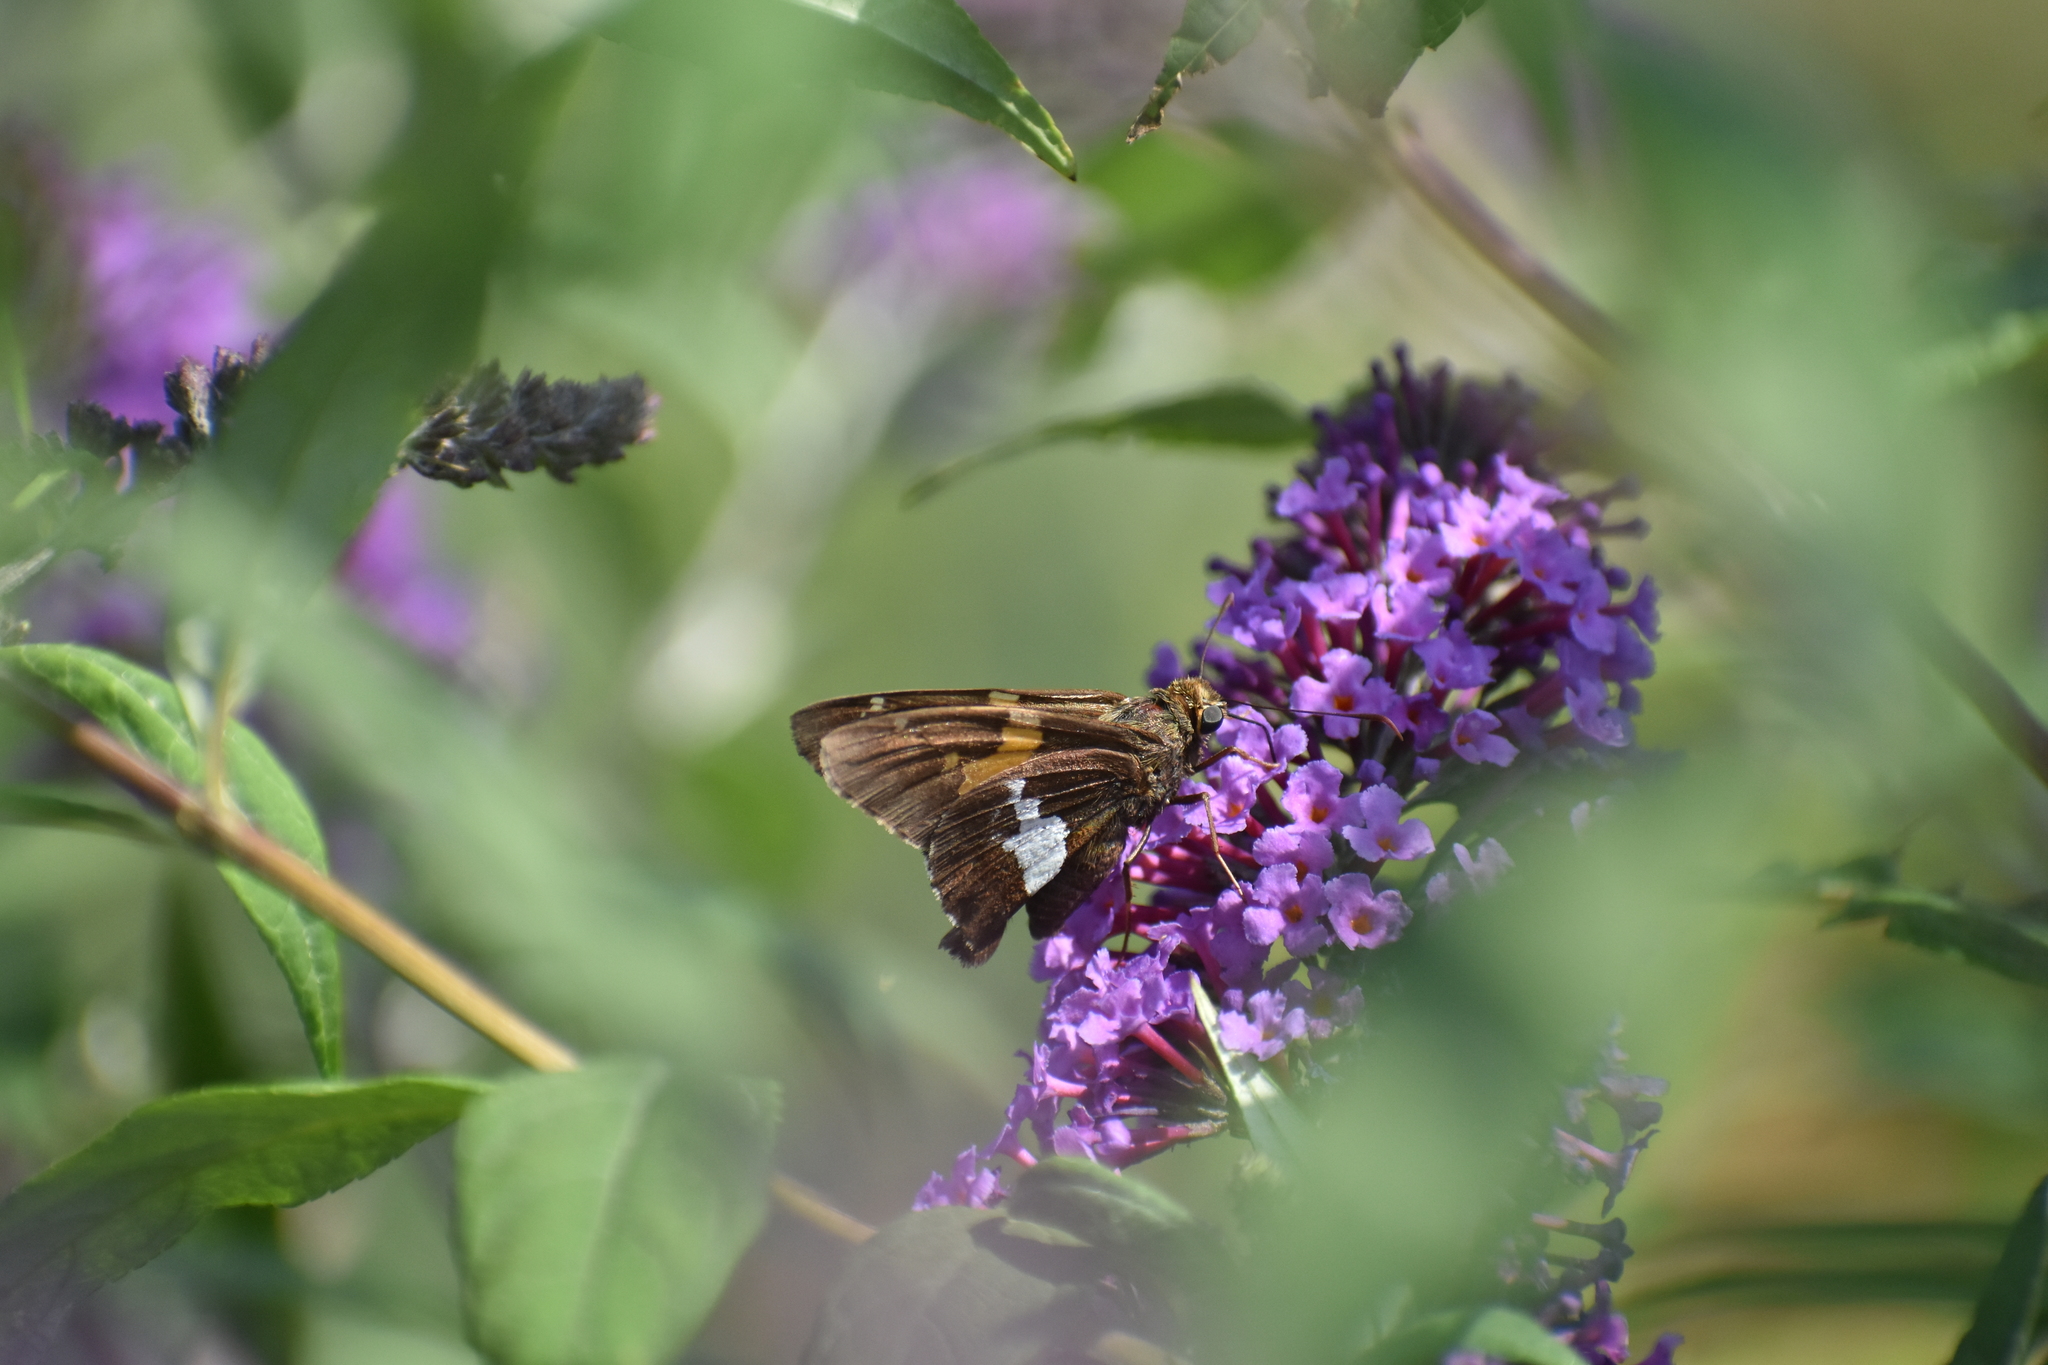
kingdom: Animalia
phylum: Arthropoda
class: Insecta
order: Lepidoptera
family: Hesperiidae
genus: Epargyreus
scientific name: Epargyreus clarus
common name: Silver-spotted skipper
